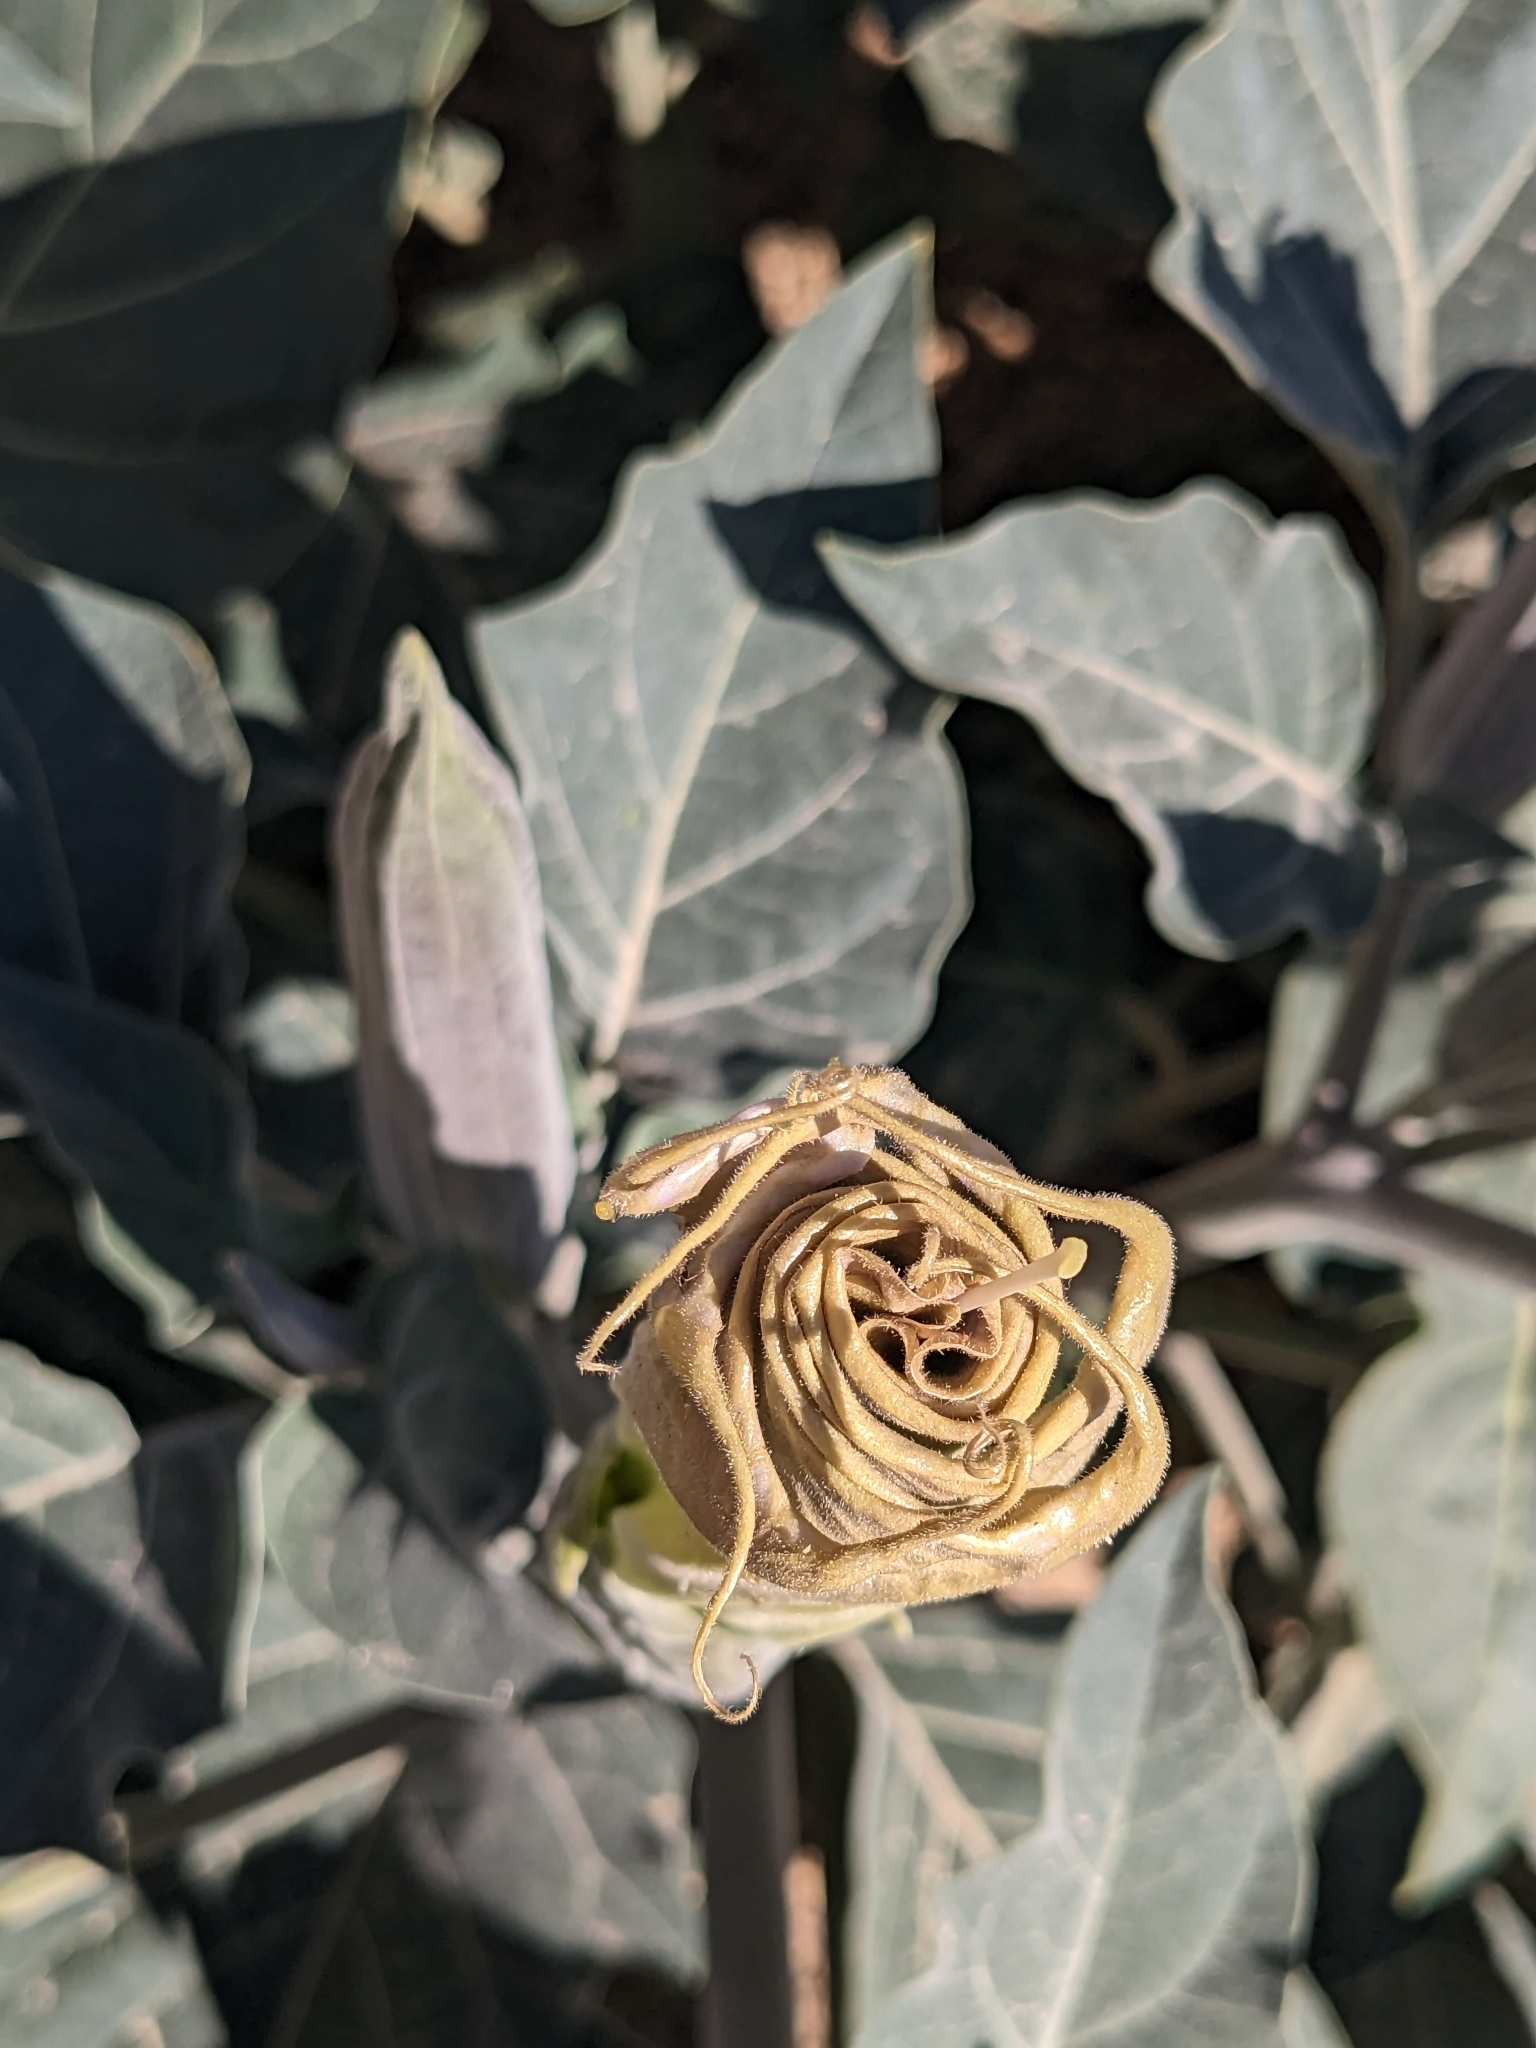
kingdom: Plantae
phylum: Tracheophyta
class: Magnoliopsida
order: Solanales
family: Solanaceae
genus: Datura
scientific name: Datura wrightii
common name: Sacred thorn-apple
